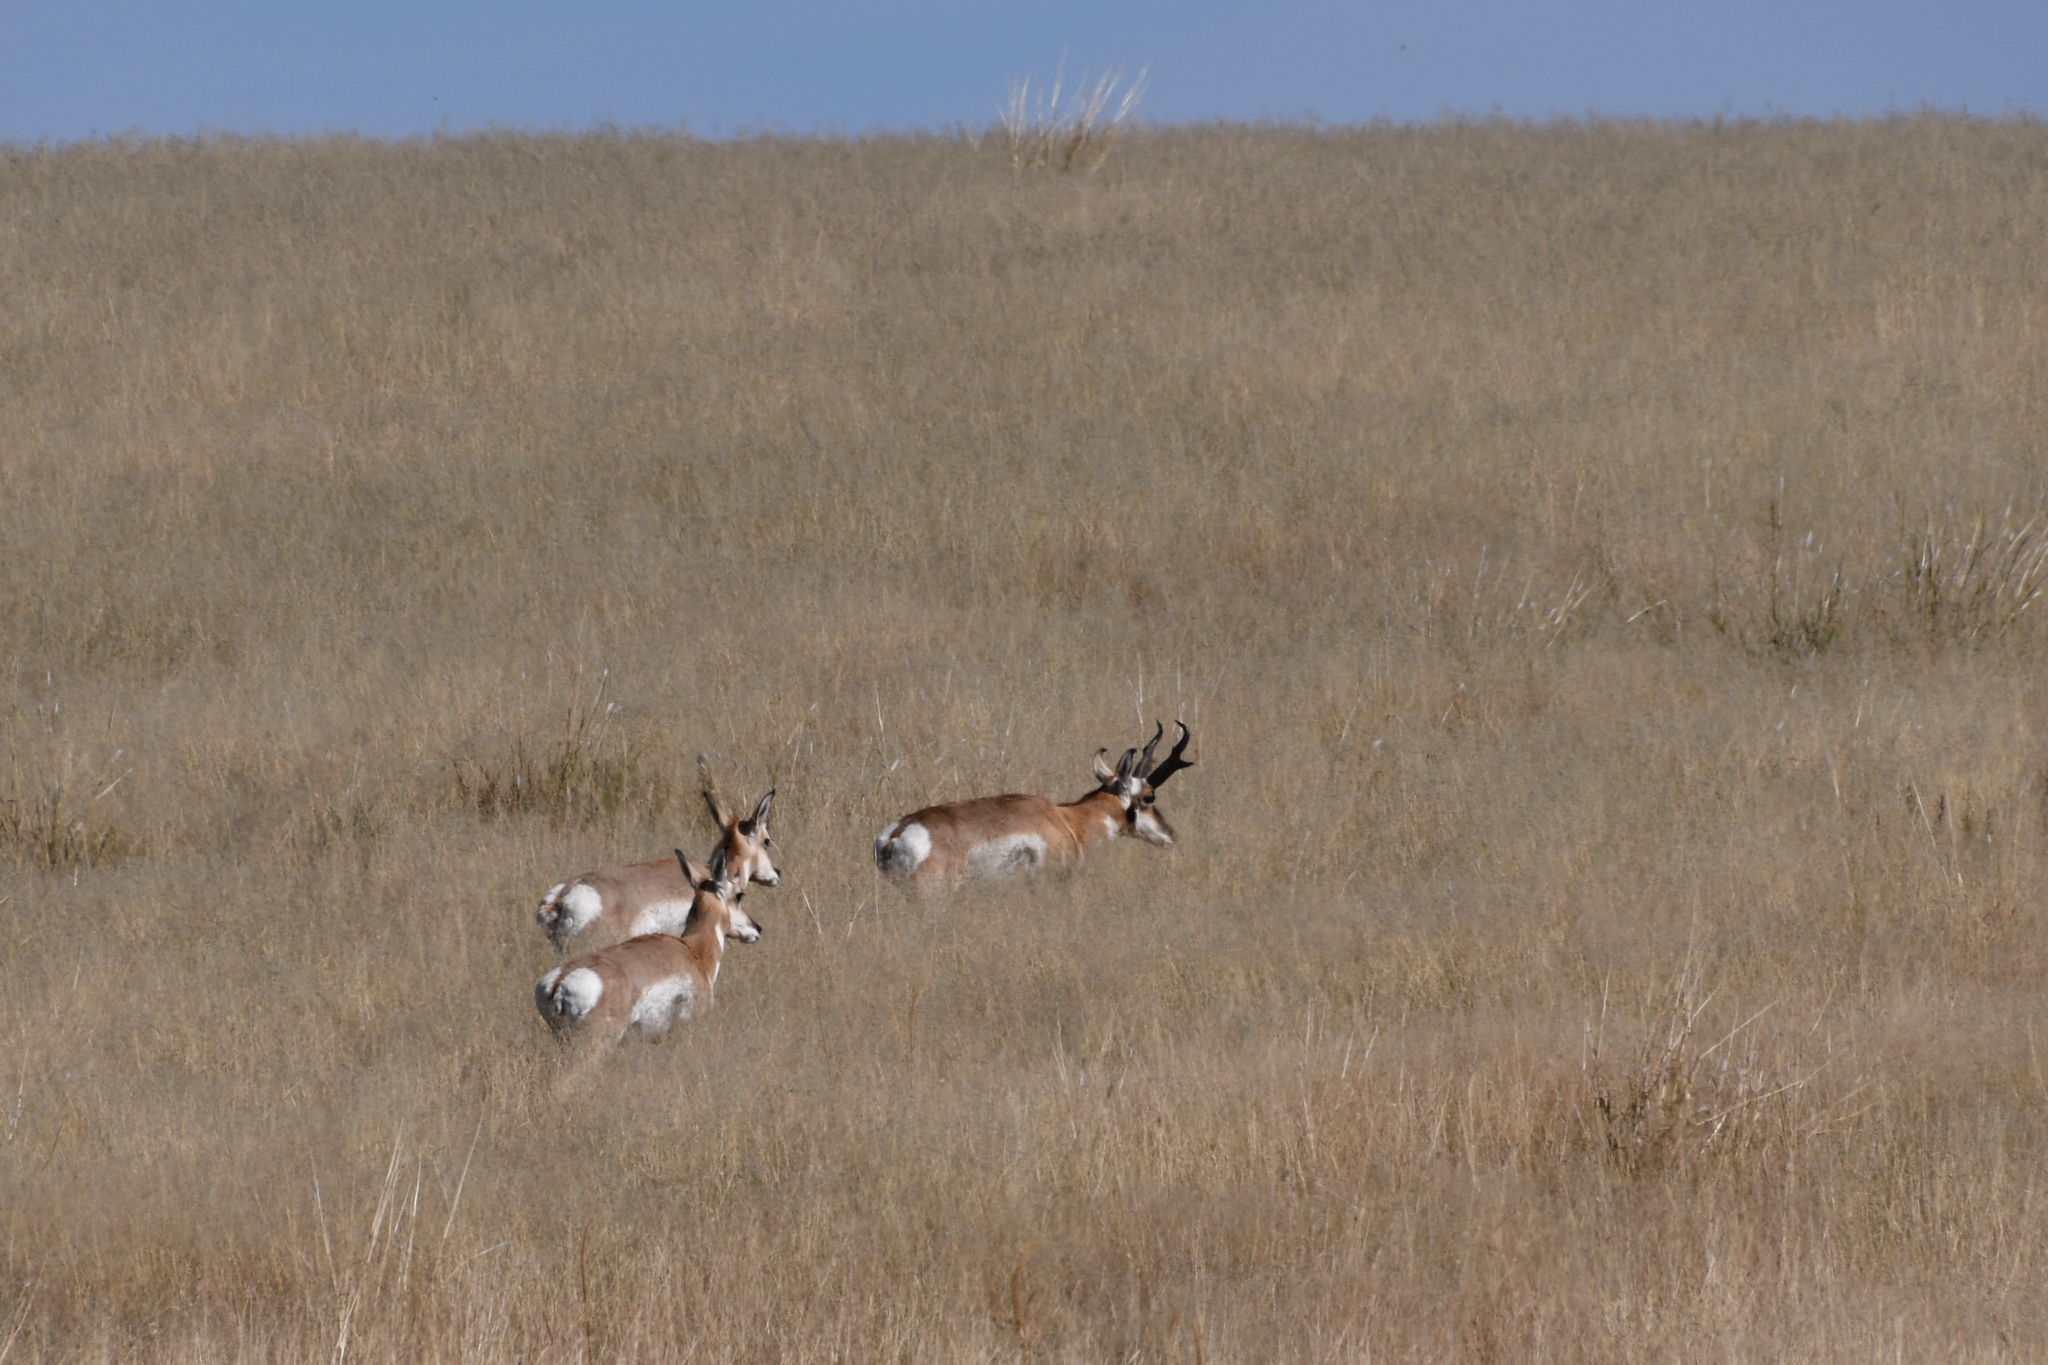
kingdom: Animalia
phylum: Chordata
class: Mammalia
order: Artiodactyla
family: Antilocapridae
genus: Antilocapra
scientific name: Antilocapra americana
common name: Pronghorn
